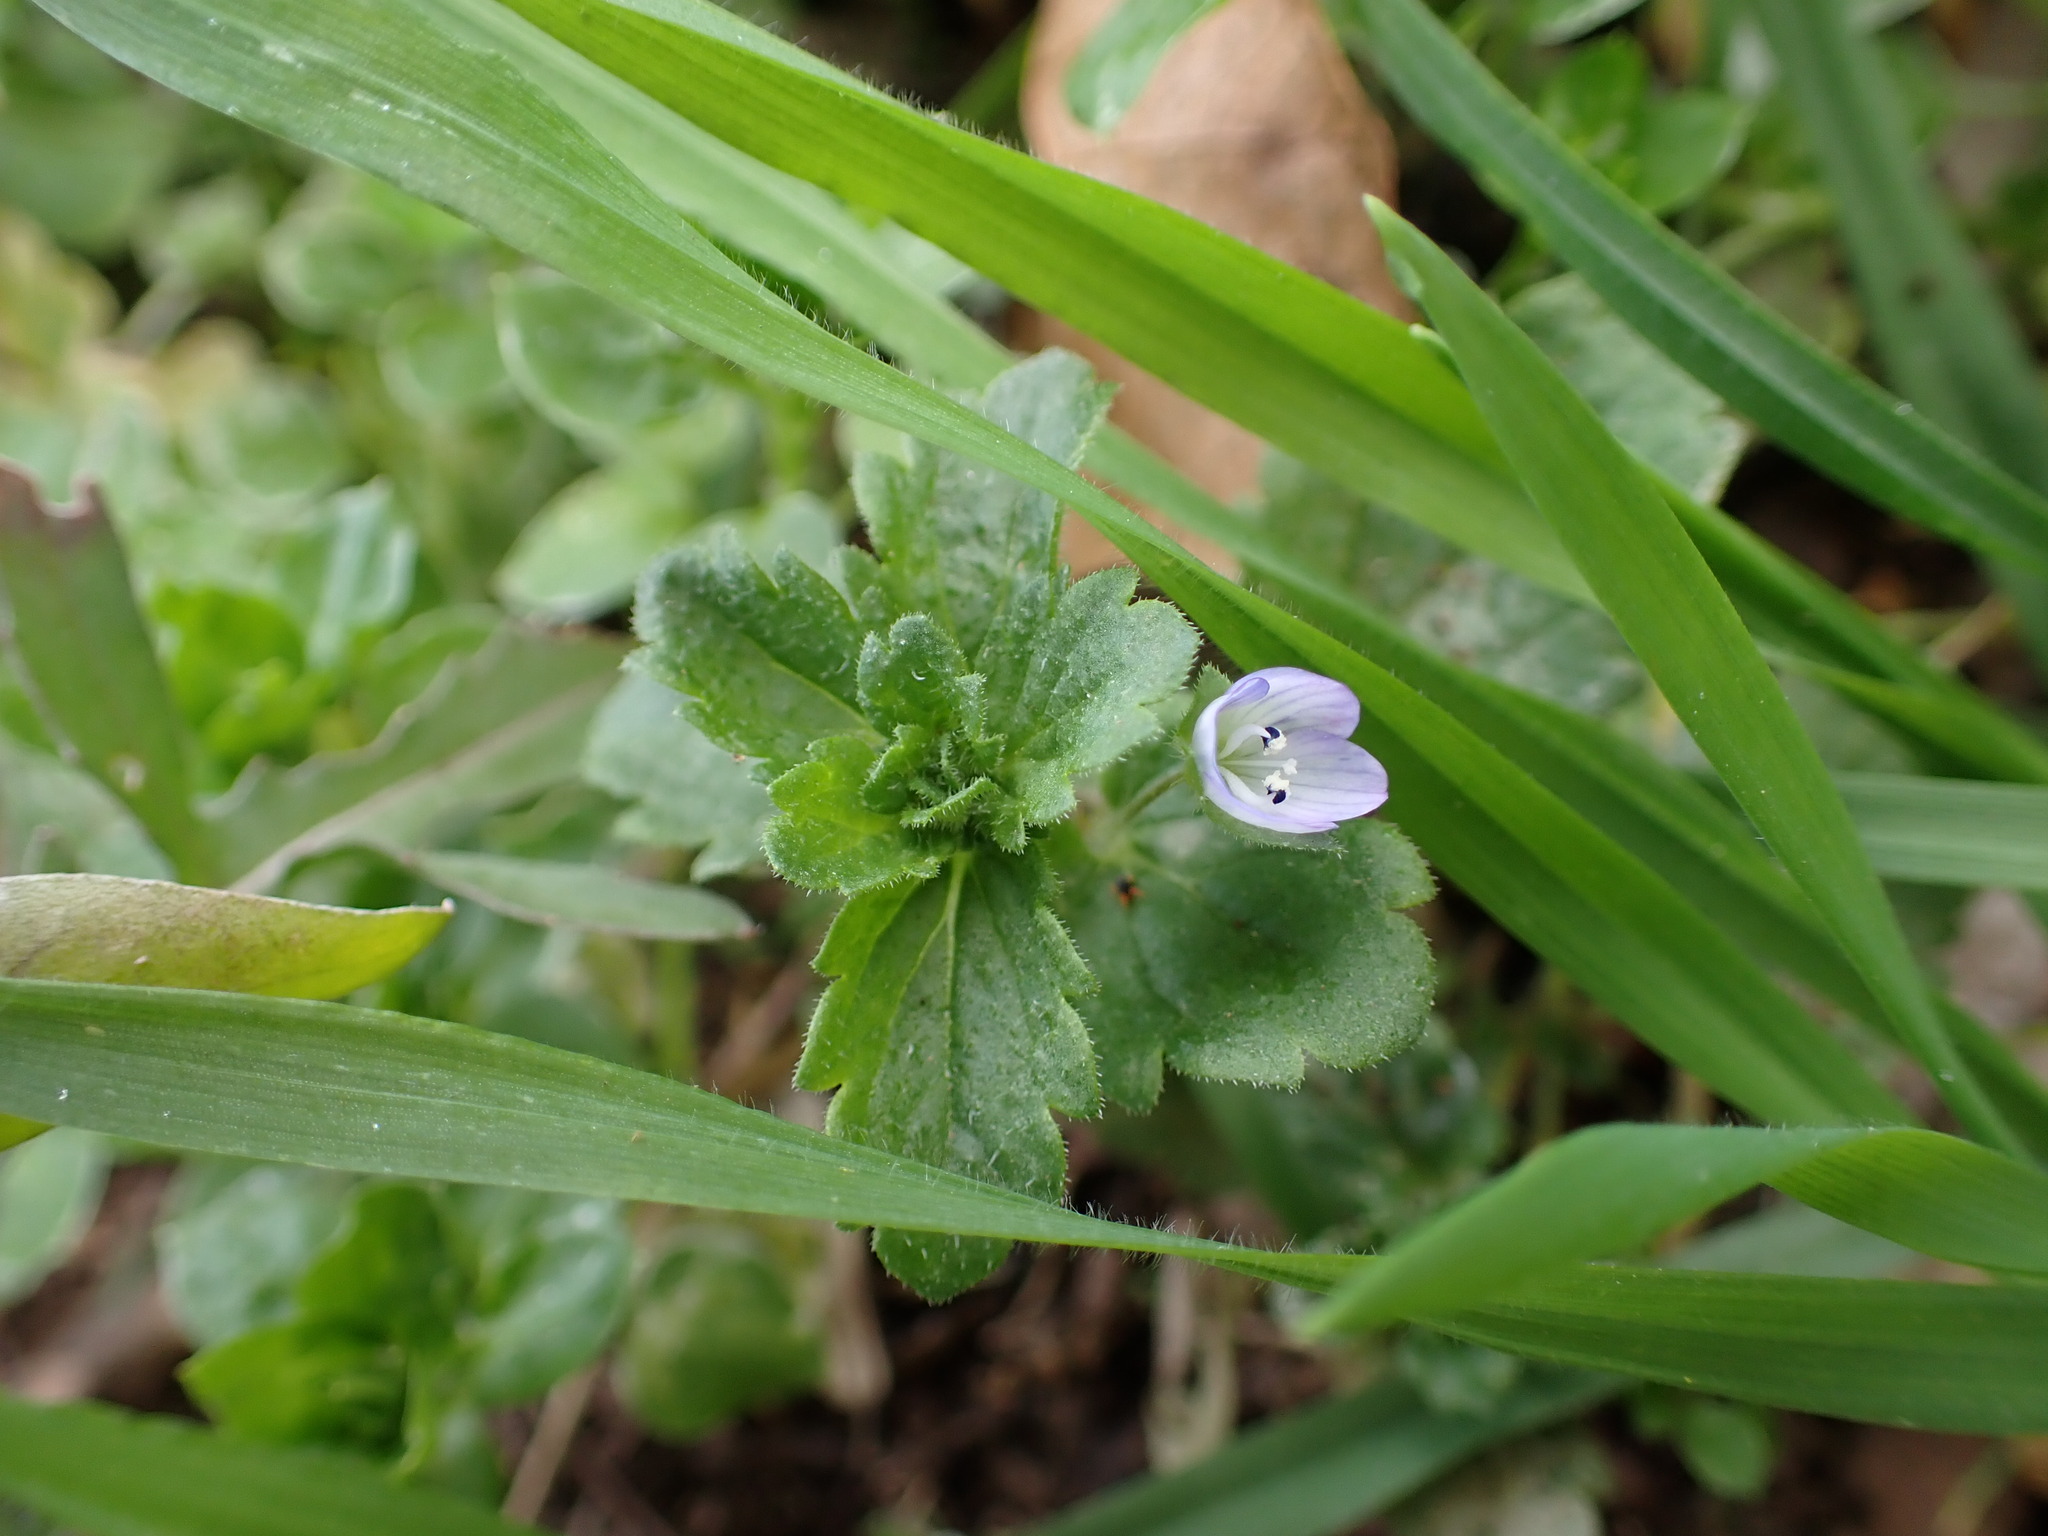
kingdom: Plantae
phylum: Tracheophyta
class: Magnoliopsida
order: Lamiales
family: Plantaginaceae
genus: Veronica
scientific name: Veronica persica
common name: Common field-speedwell
